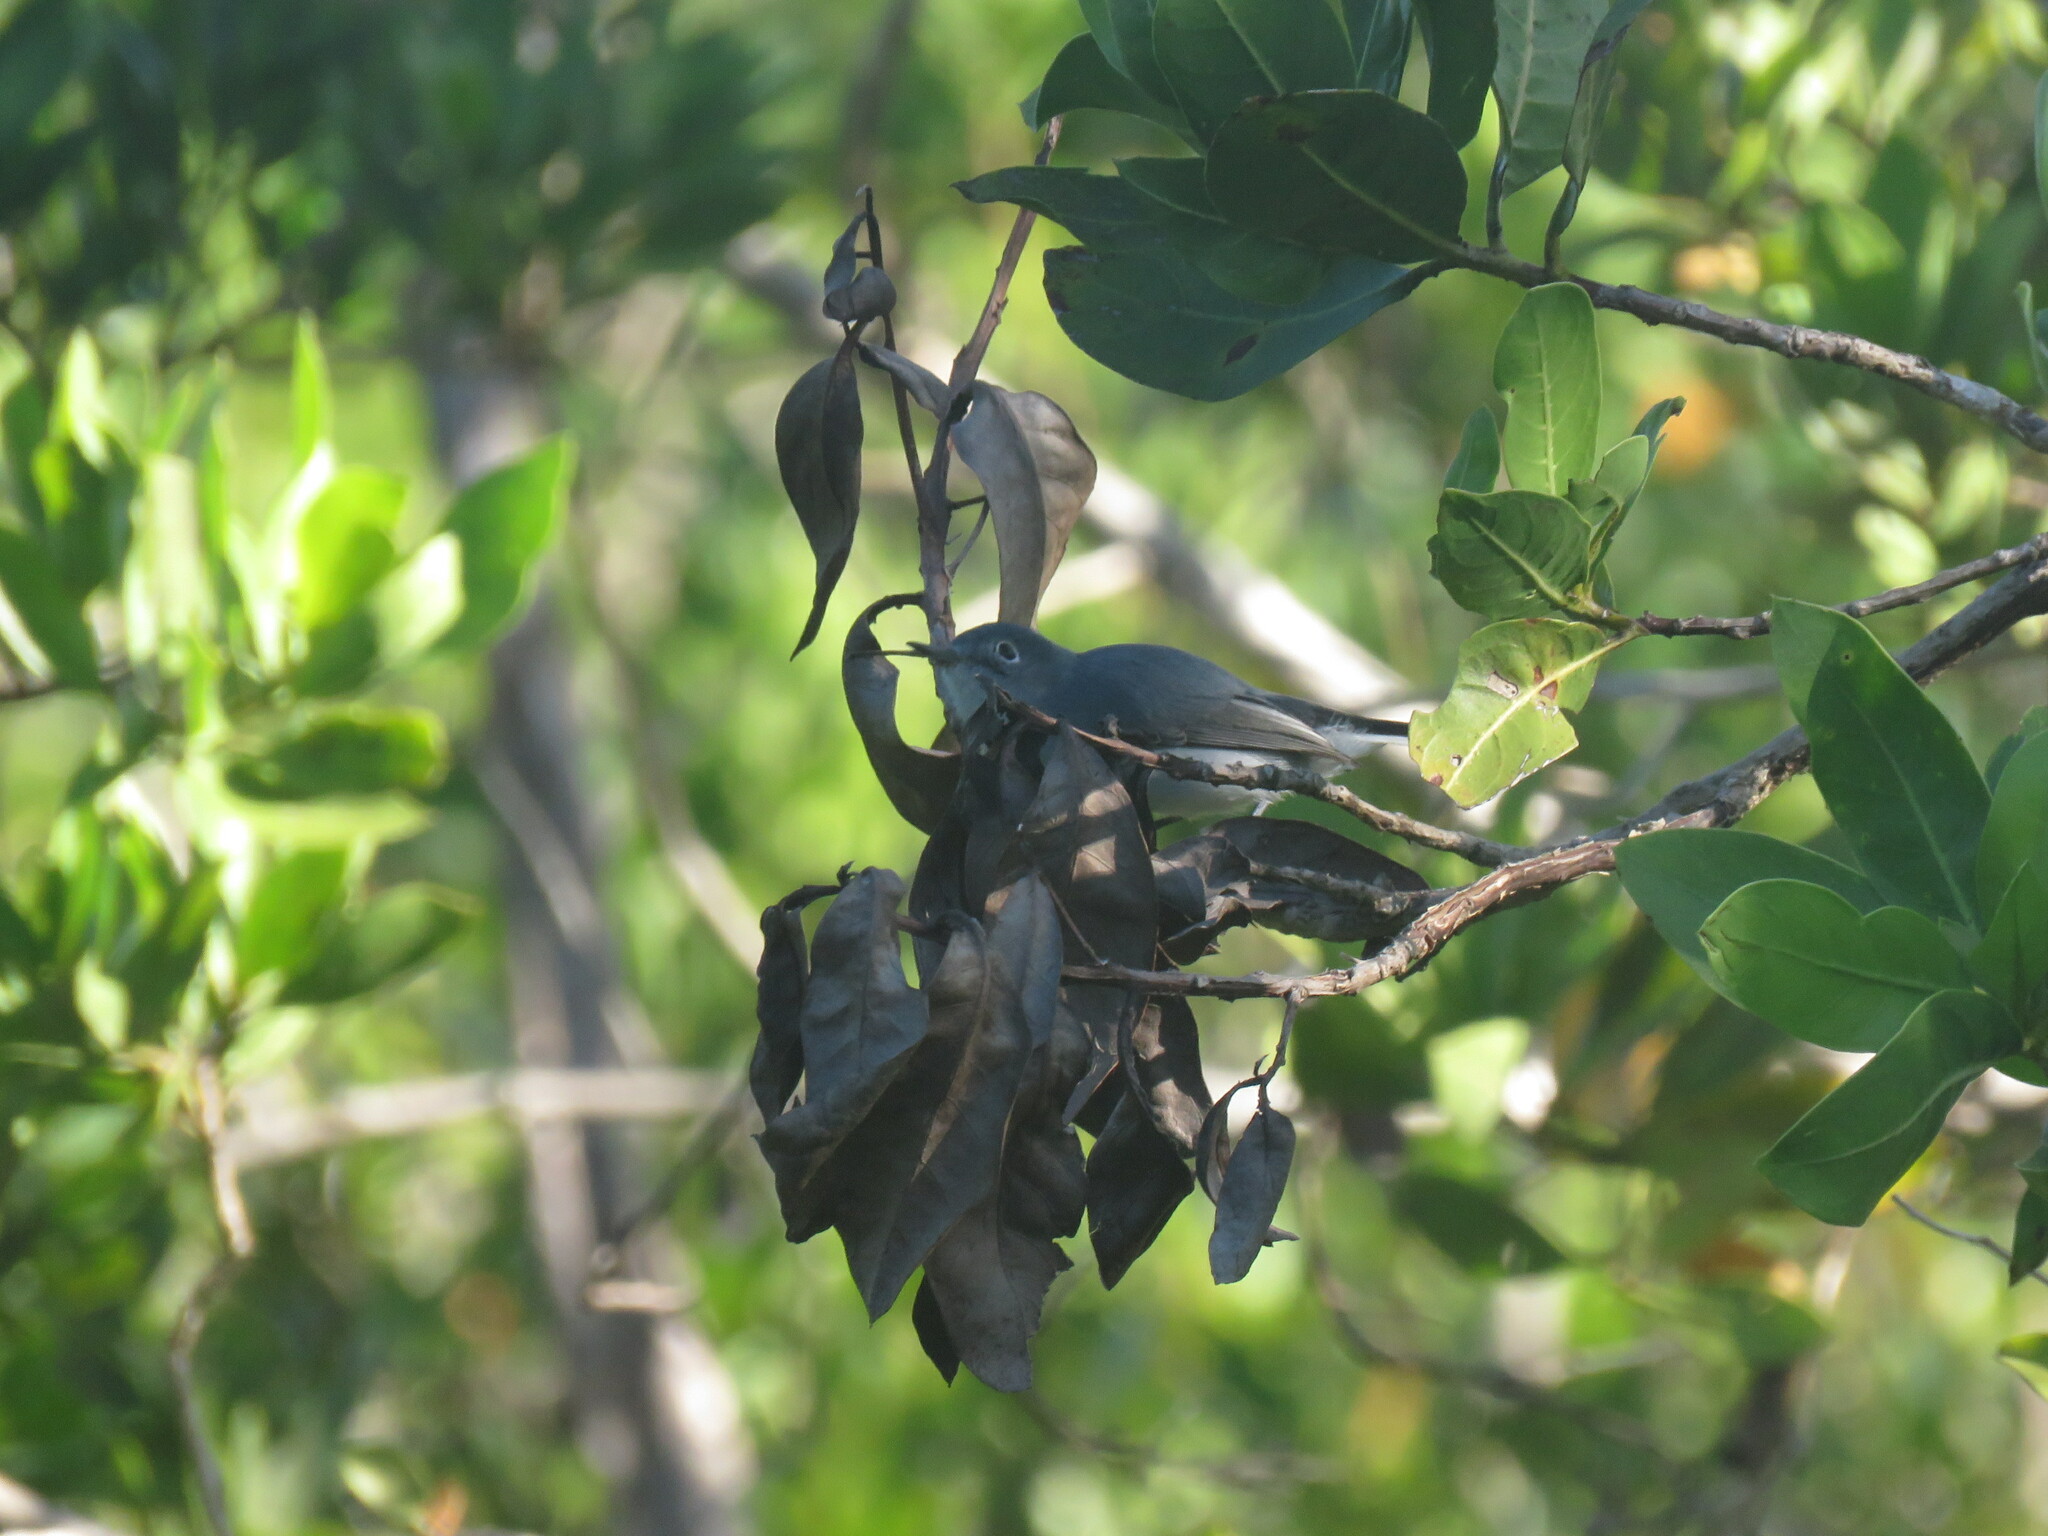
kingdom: Animalia
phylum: Chordata
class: Aves
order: Passeriformes
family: Polioptilidae
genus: Polioptila
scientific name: Polioptila caerulea
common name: Blue-gray gnatcatcher
